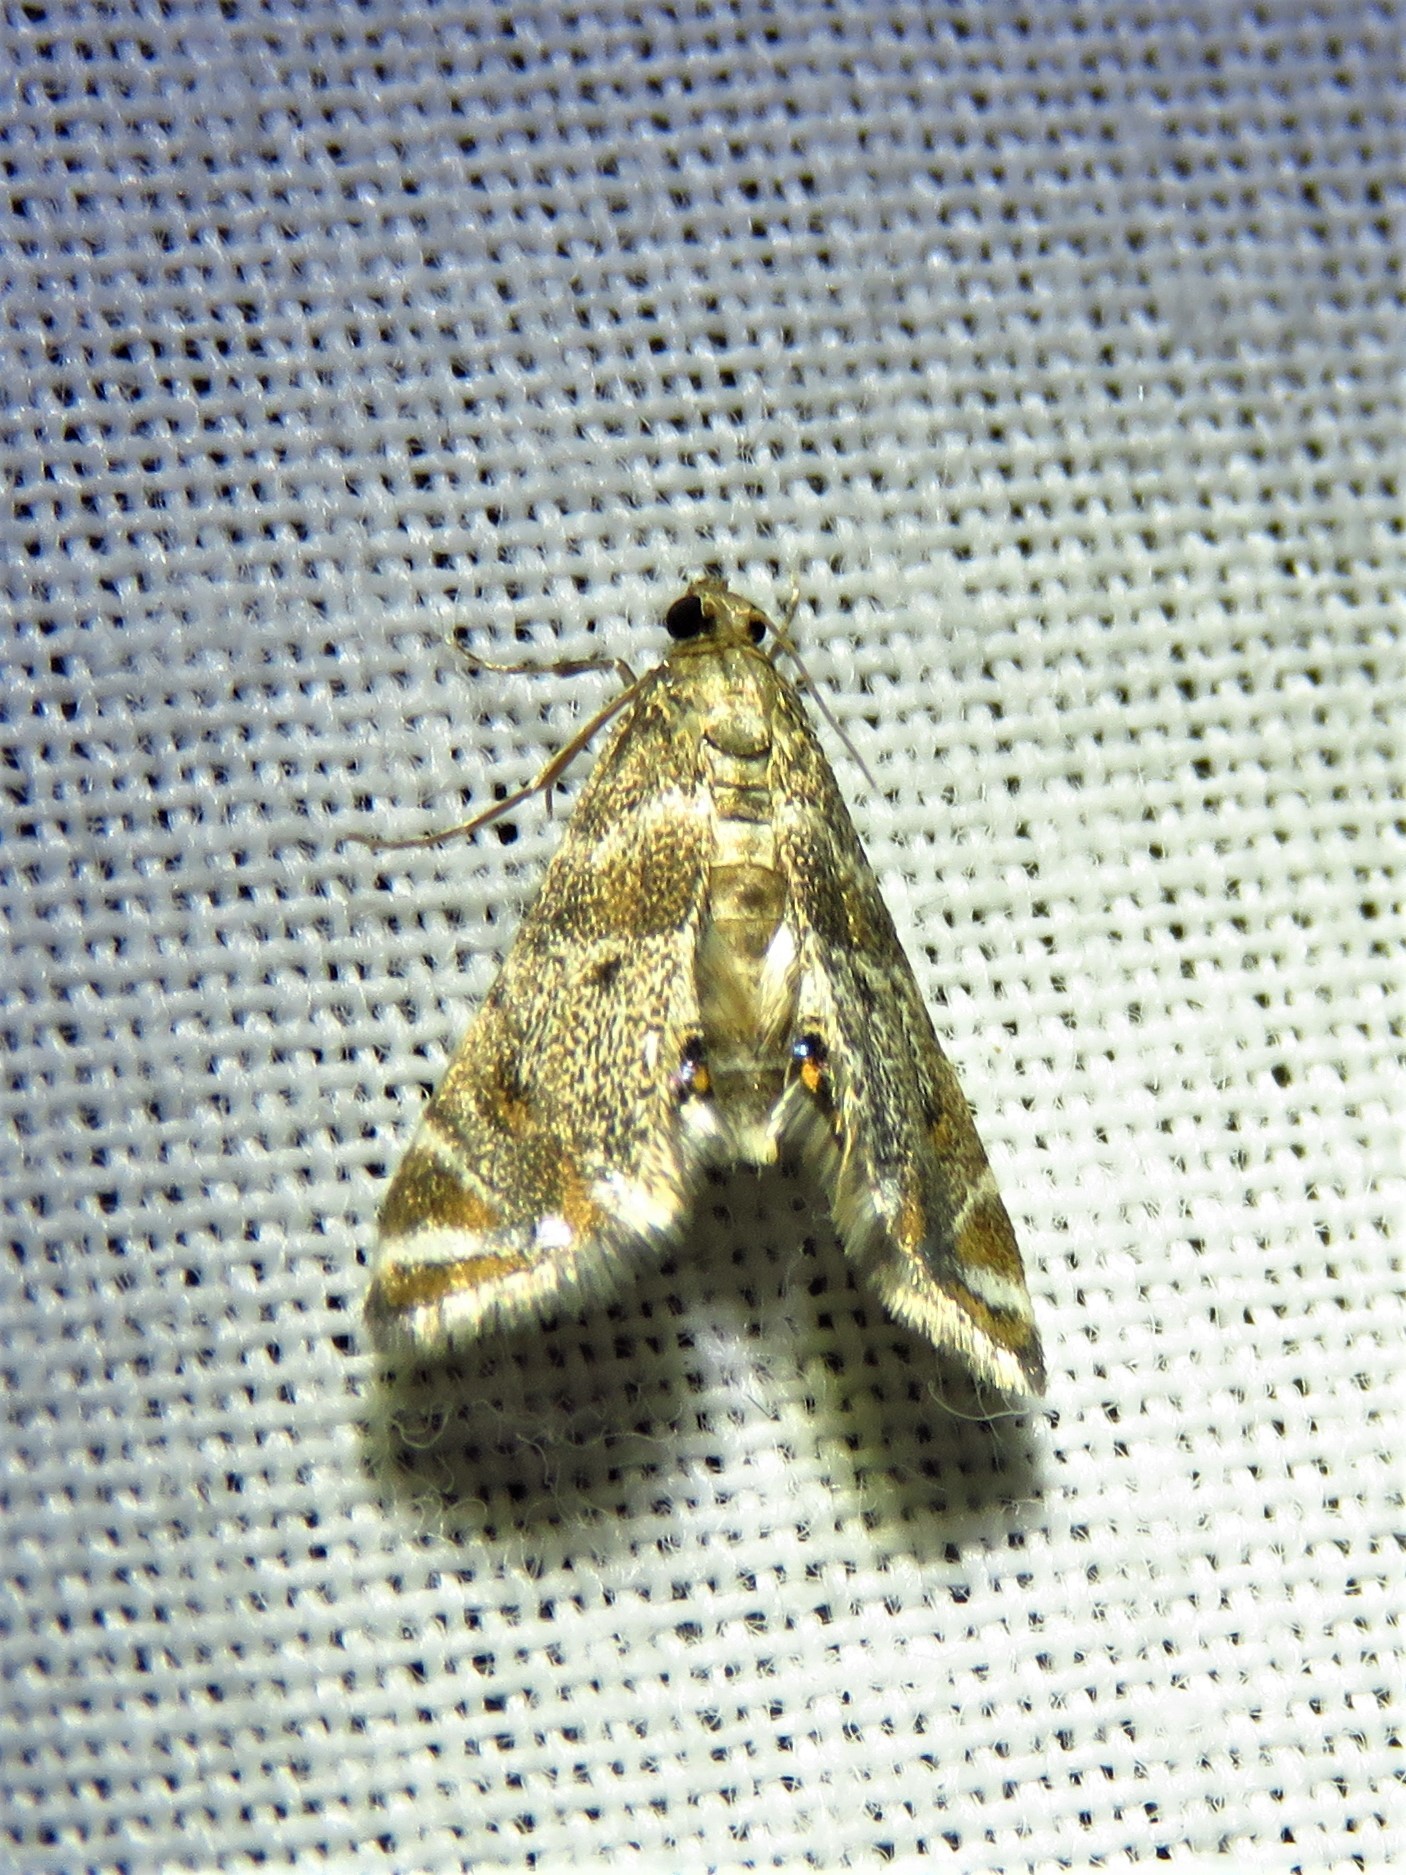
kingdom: Animalia
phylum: Arthropoda
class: Insecta
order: Lepidoptera
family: Crambidae
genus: Petrophila
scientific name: Petrophila fulicalis
